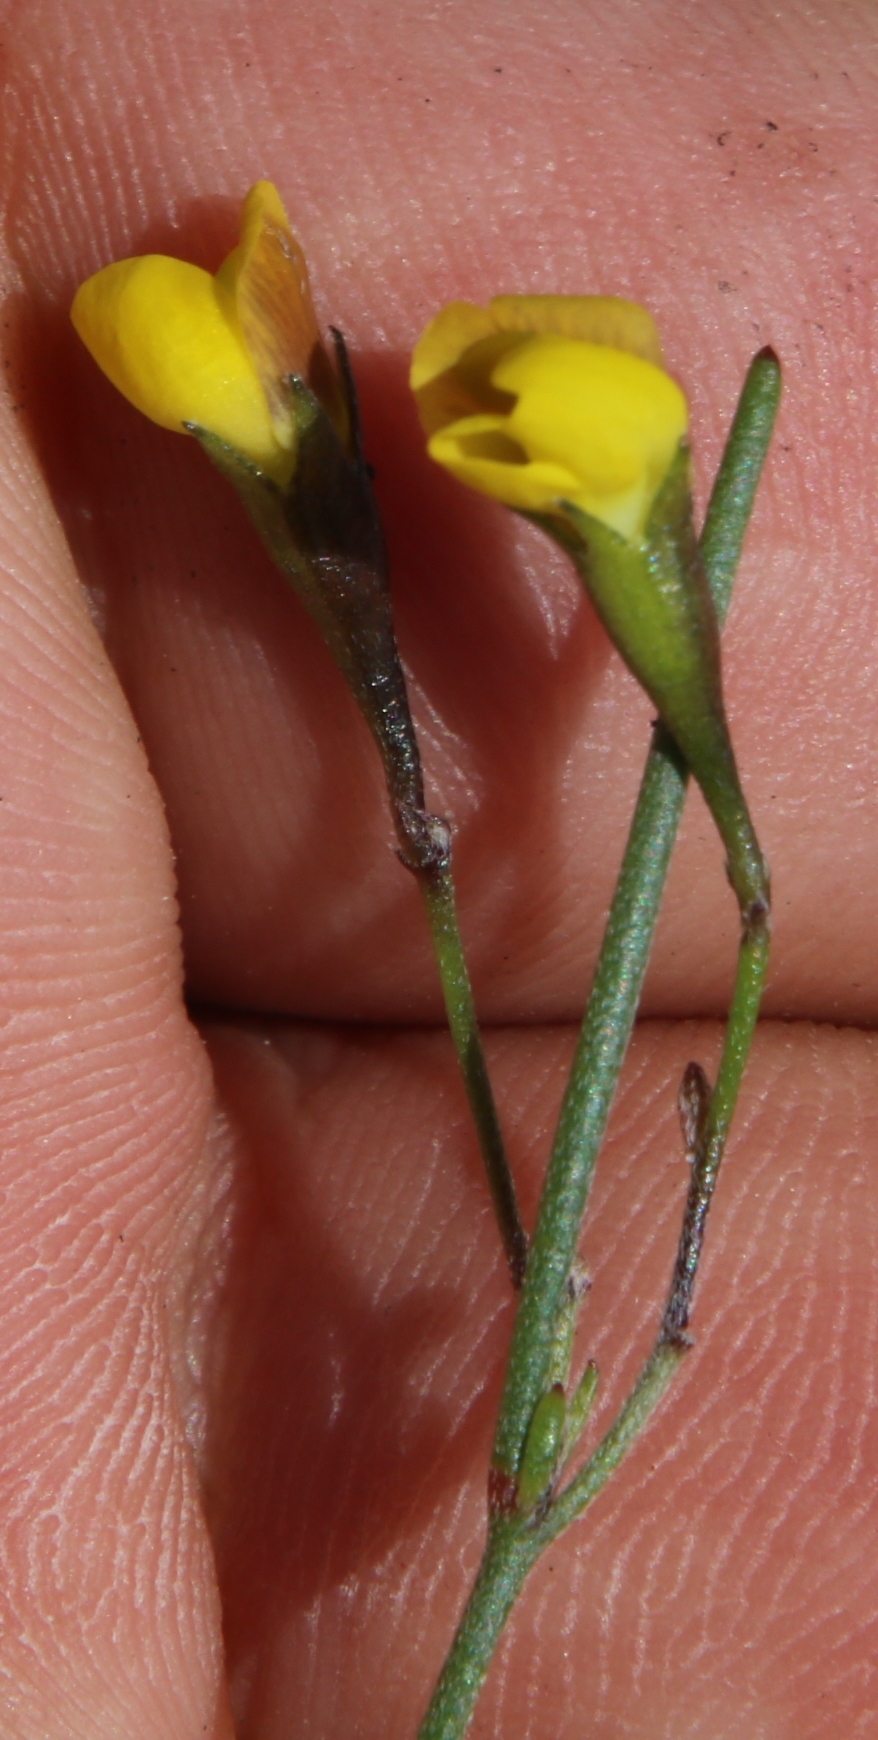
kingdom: Plantae
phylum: Tracheophyta
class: Magnoliopsida
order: Fabales
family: Fabaceae
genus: Lebeckia
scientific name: Lebeckia wrightii
